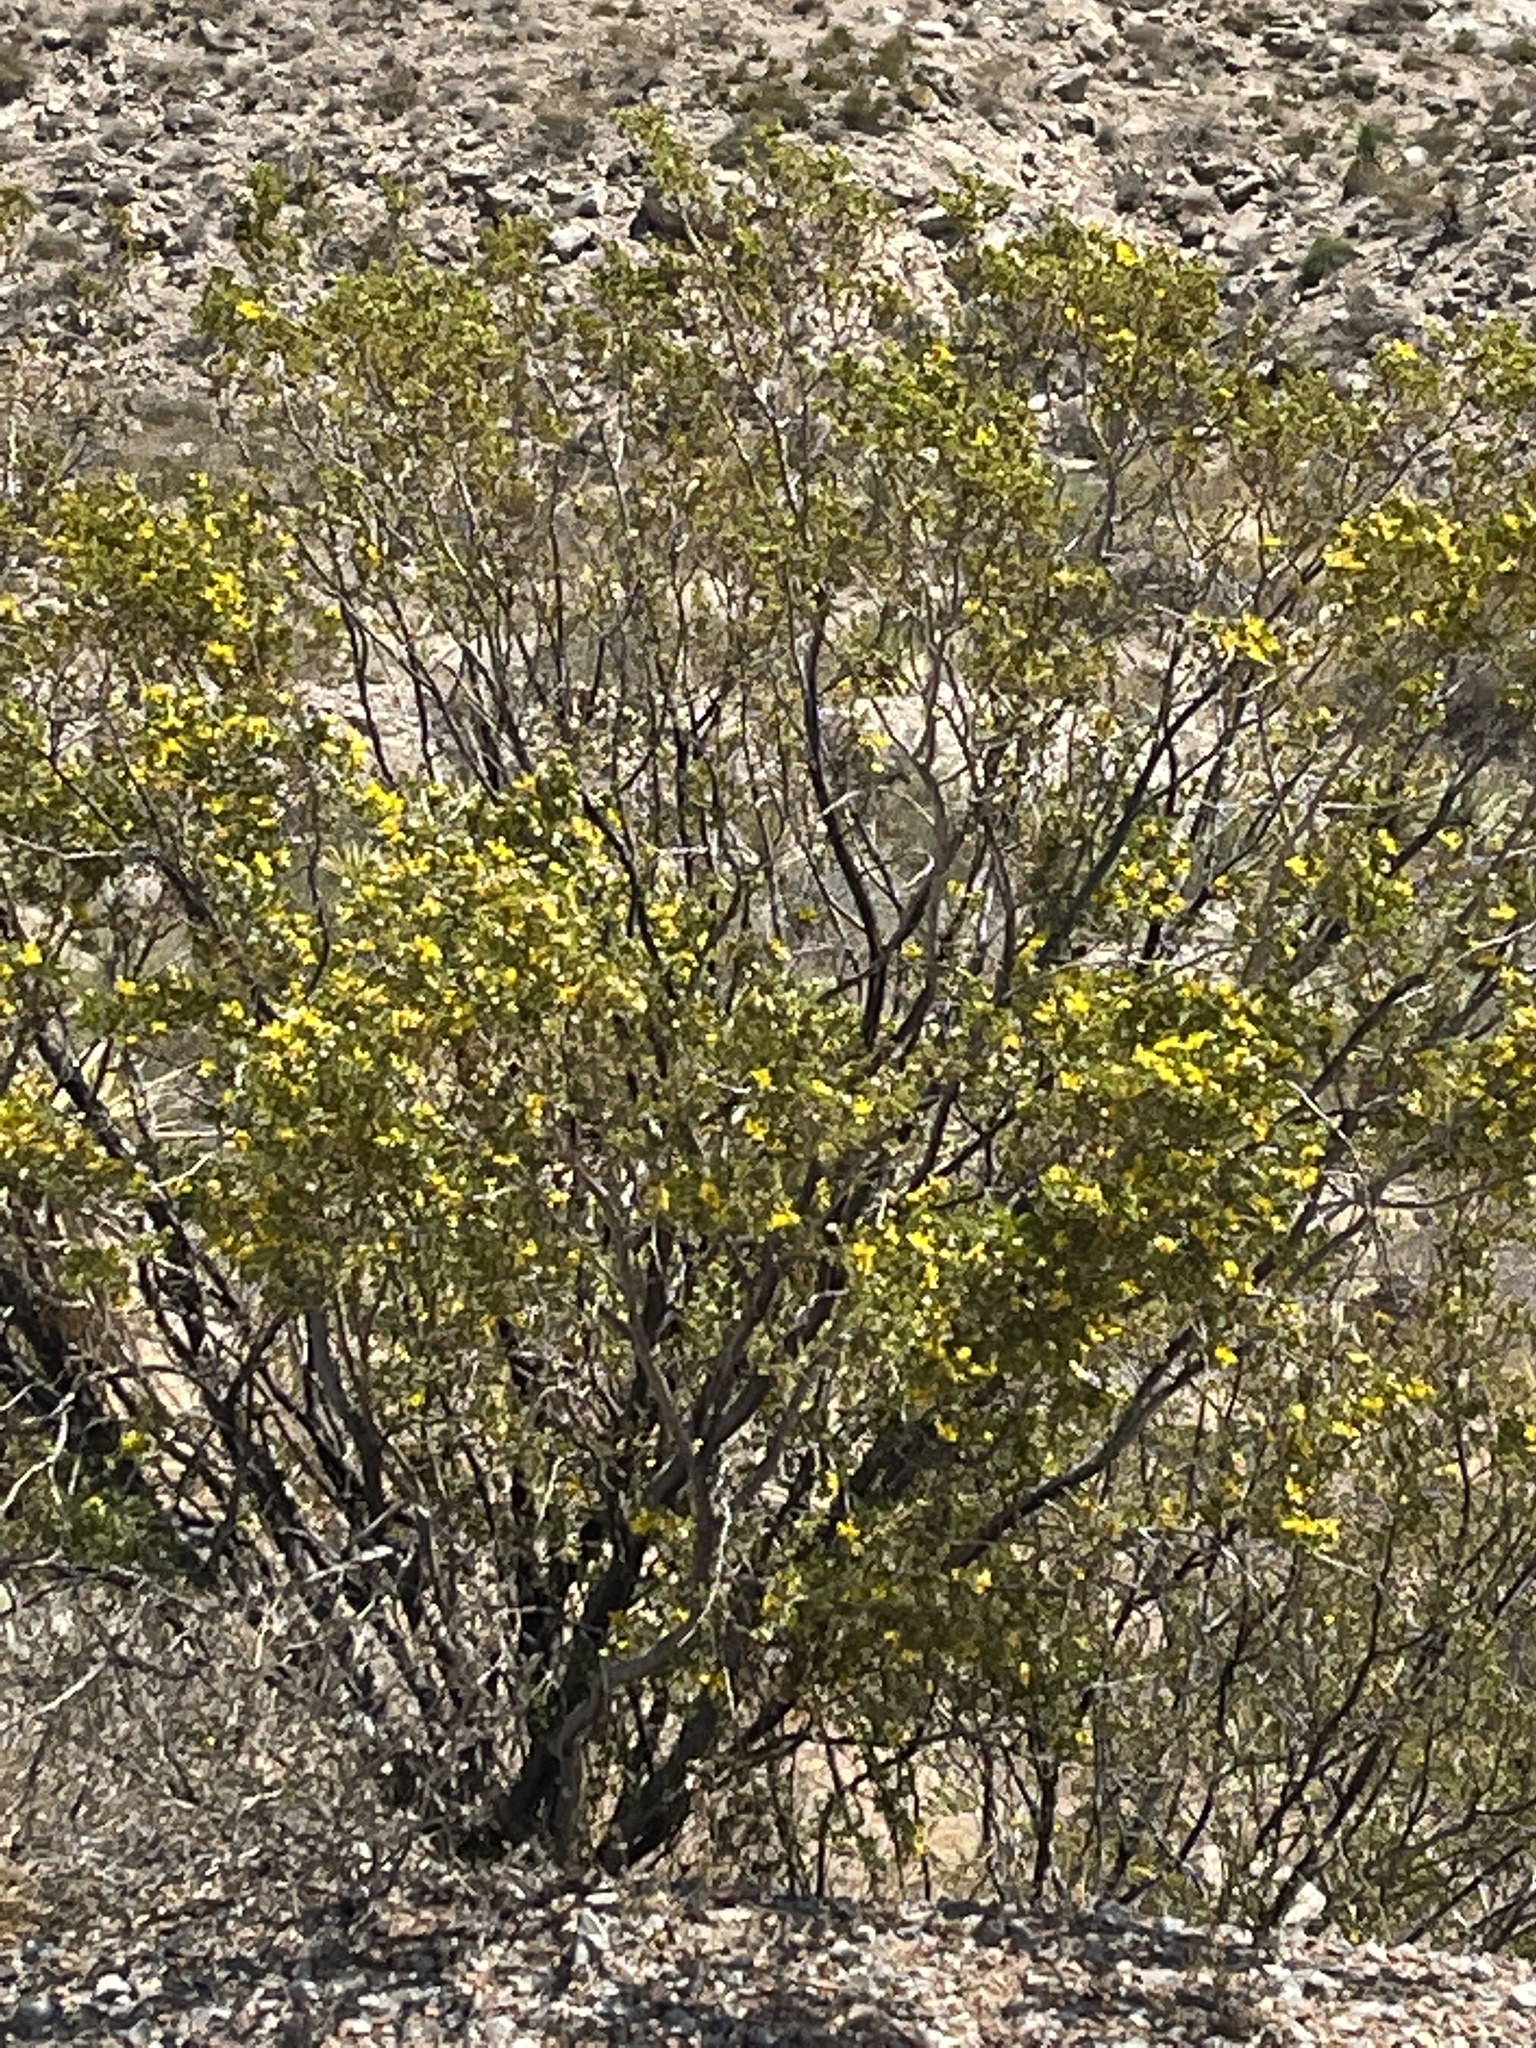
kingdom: Plantae
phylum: Tracheophyta
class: Magnoliopsida
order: Zygophyllales
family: Zygophyllaceae
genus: Larrea
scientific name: Larrea tridentata
